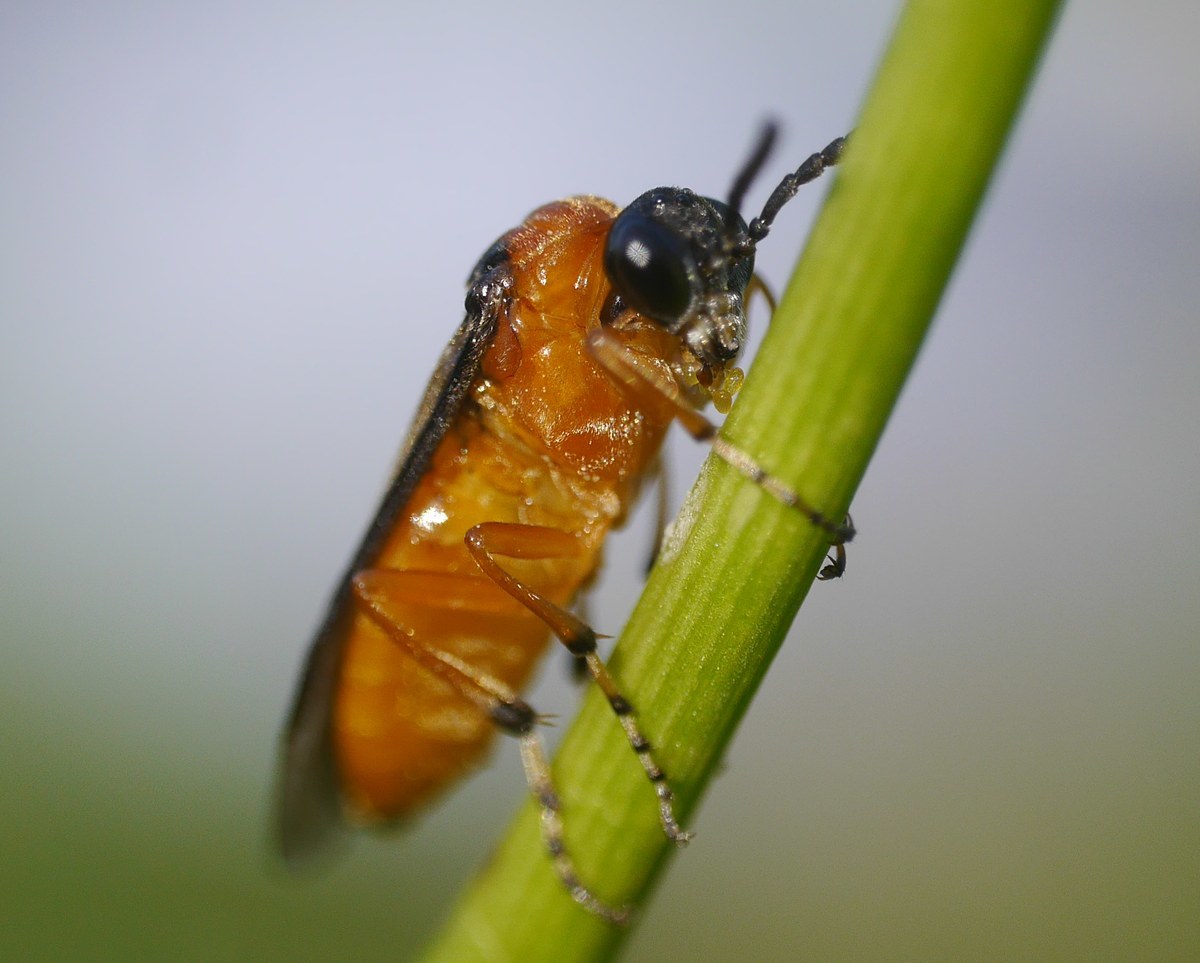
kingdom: Animalia
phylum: Arthropoda
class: Insecta
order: Hymenoptera
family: Tenthredinidae
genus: Athalia
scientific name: Athalia rosae
